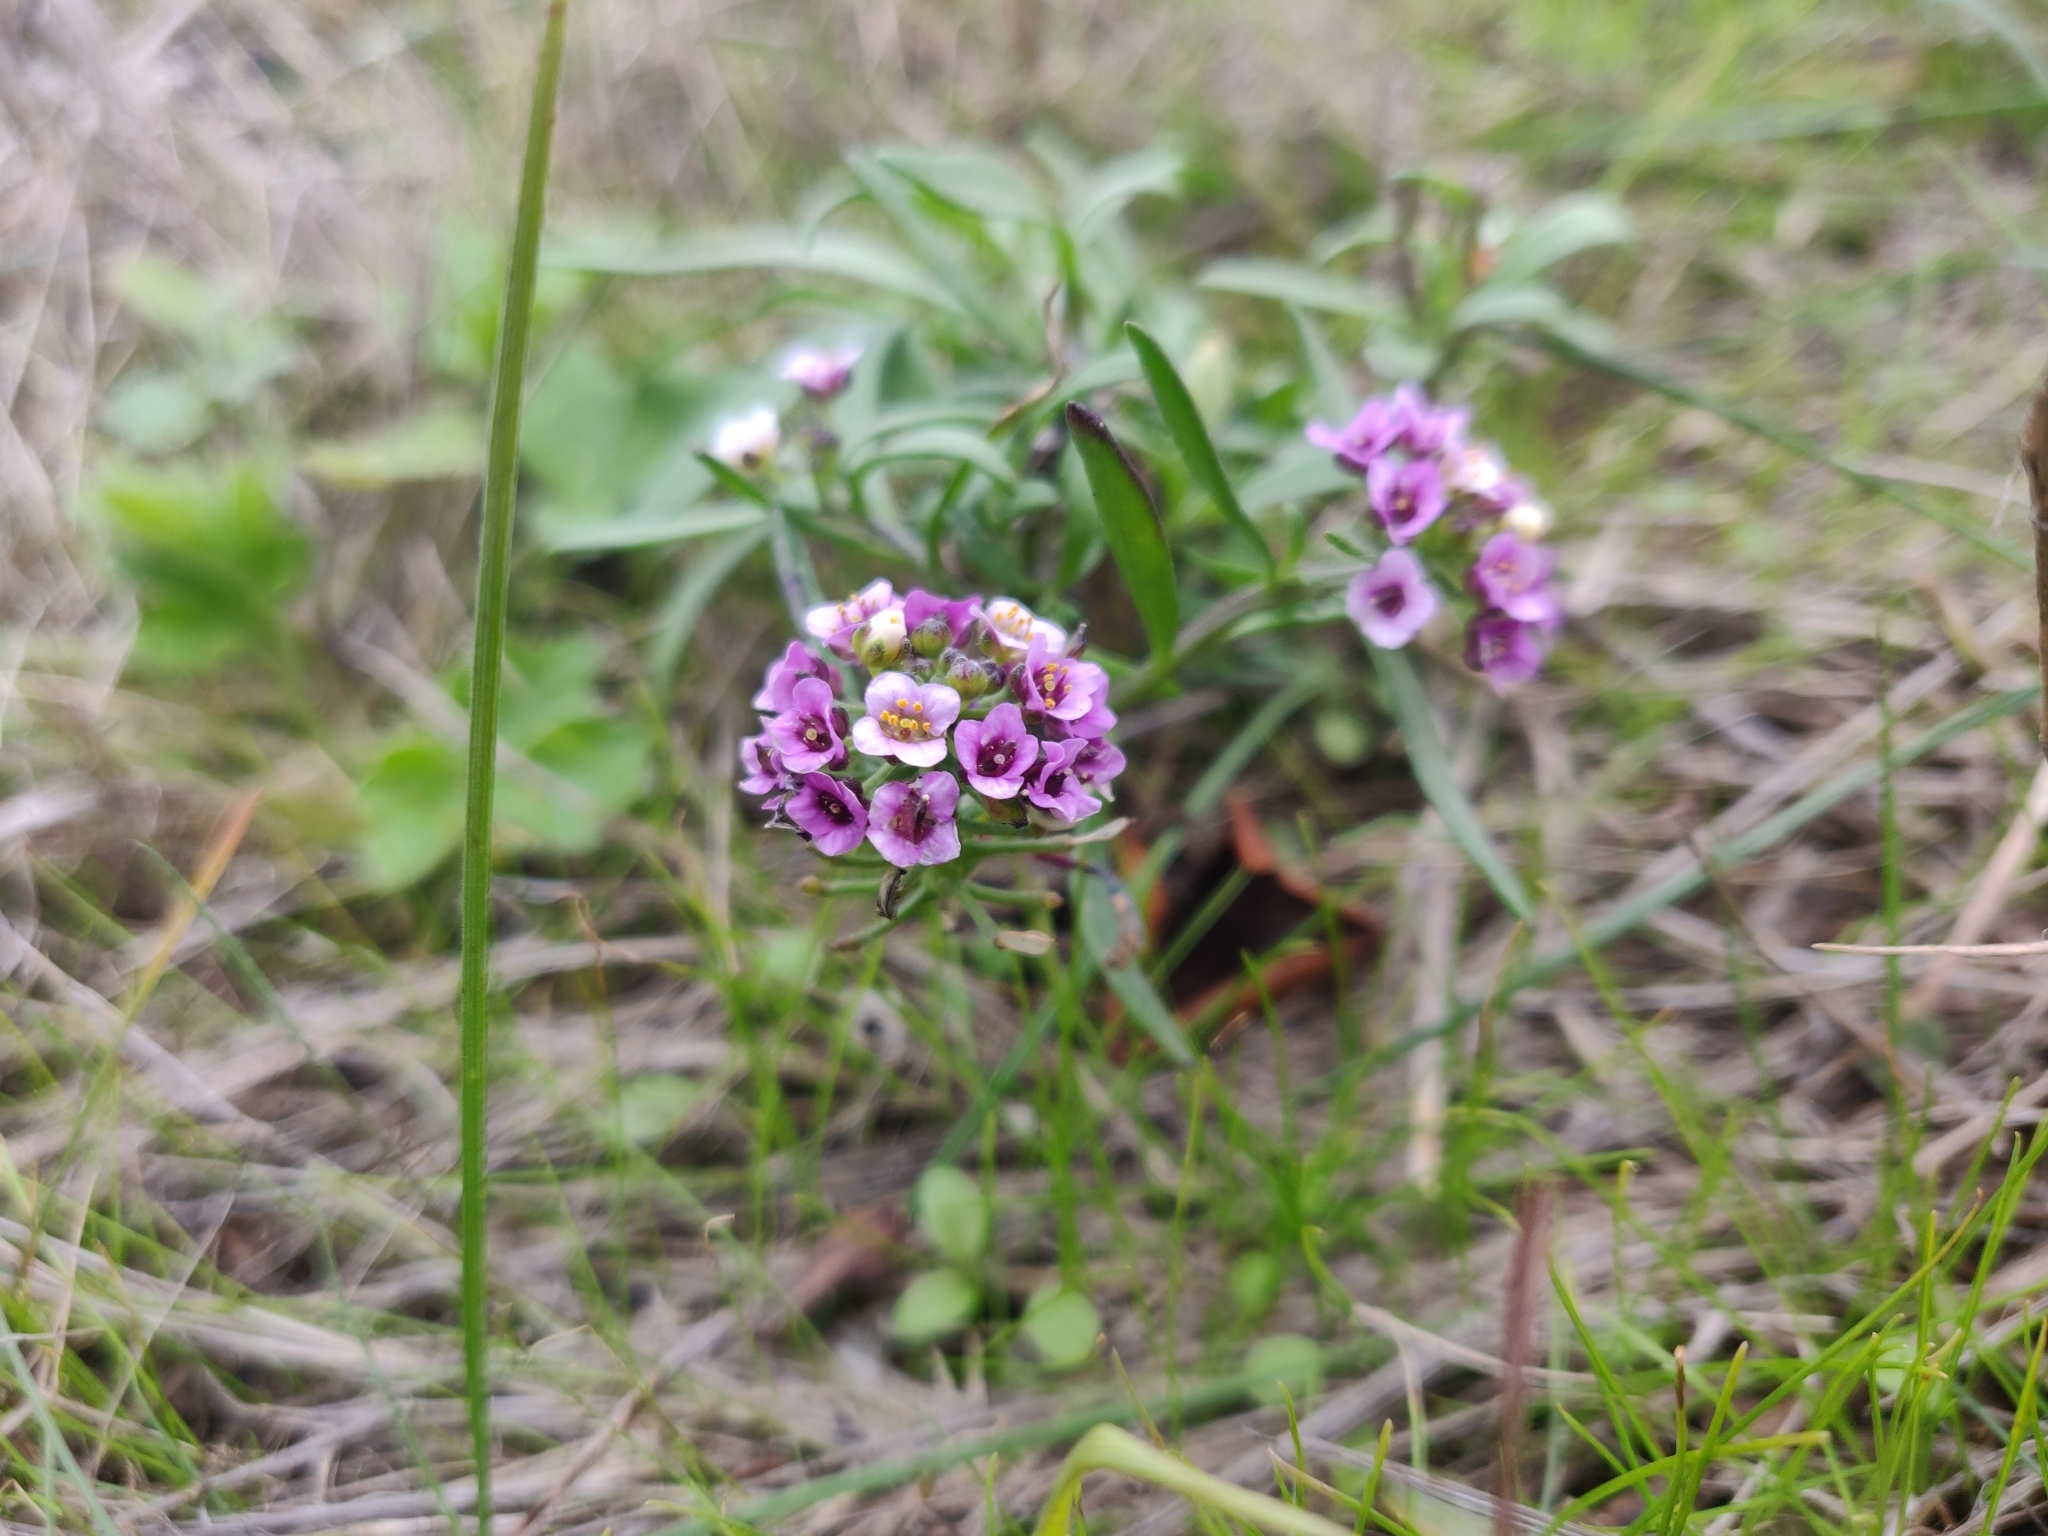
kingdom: Plantae
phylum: Tracheophyta
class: Magnoliopsida
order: Brassicales
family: Brassicaceae
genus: Lobularia
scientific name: Lobularia maritima
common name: Sweet alison
